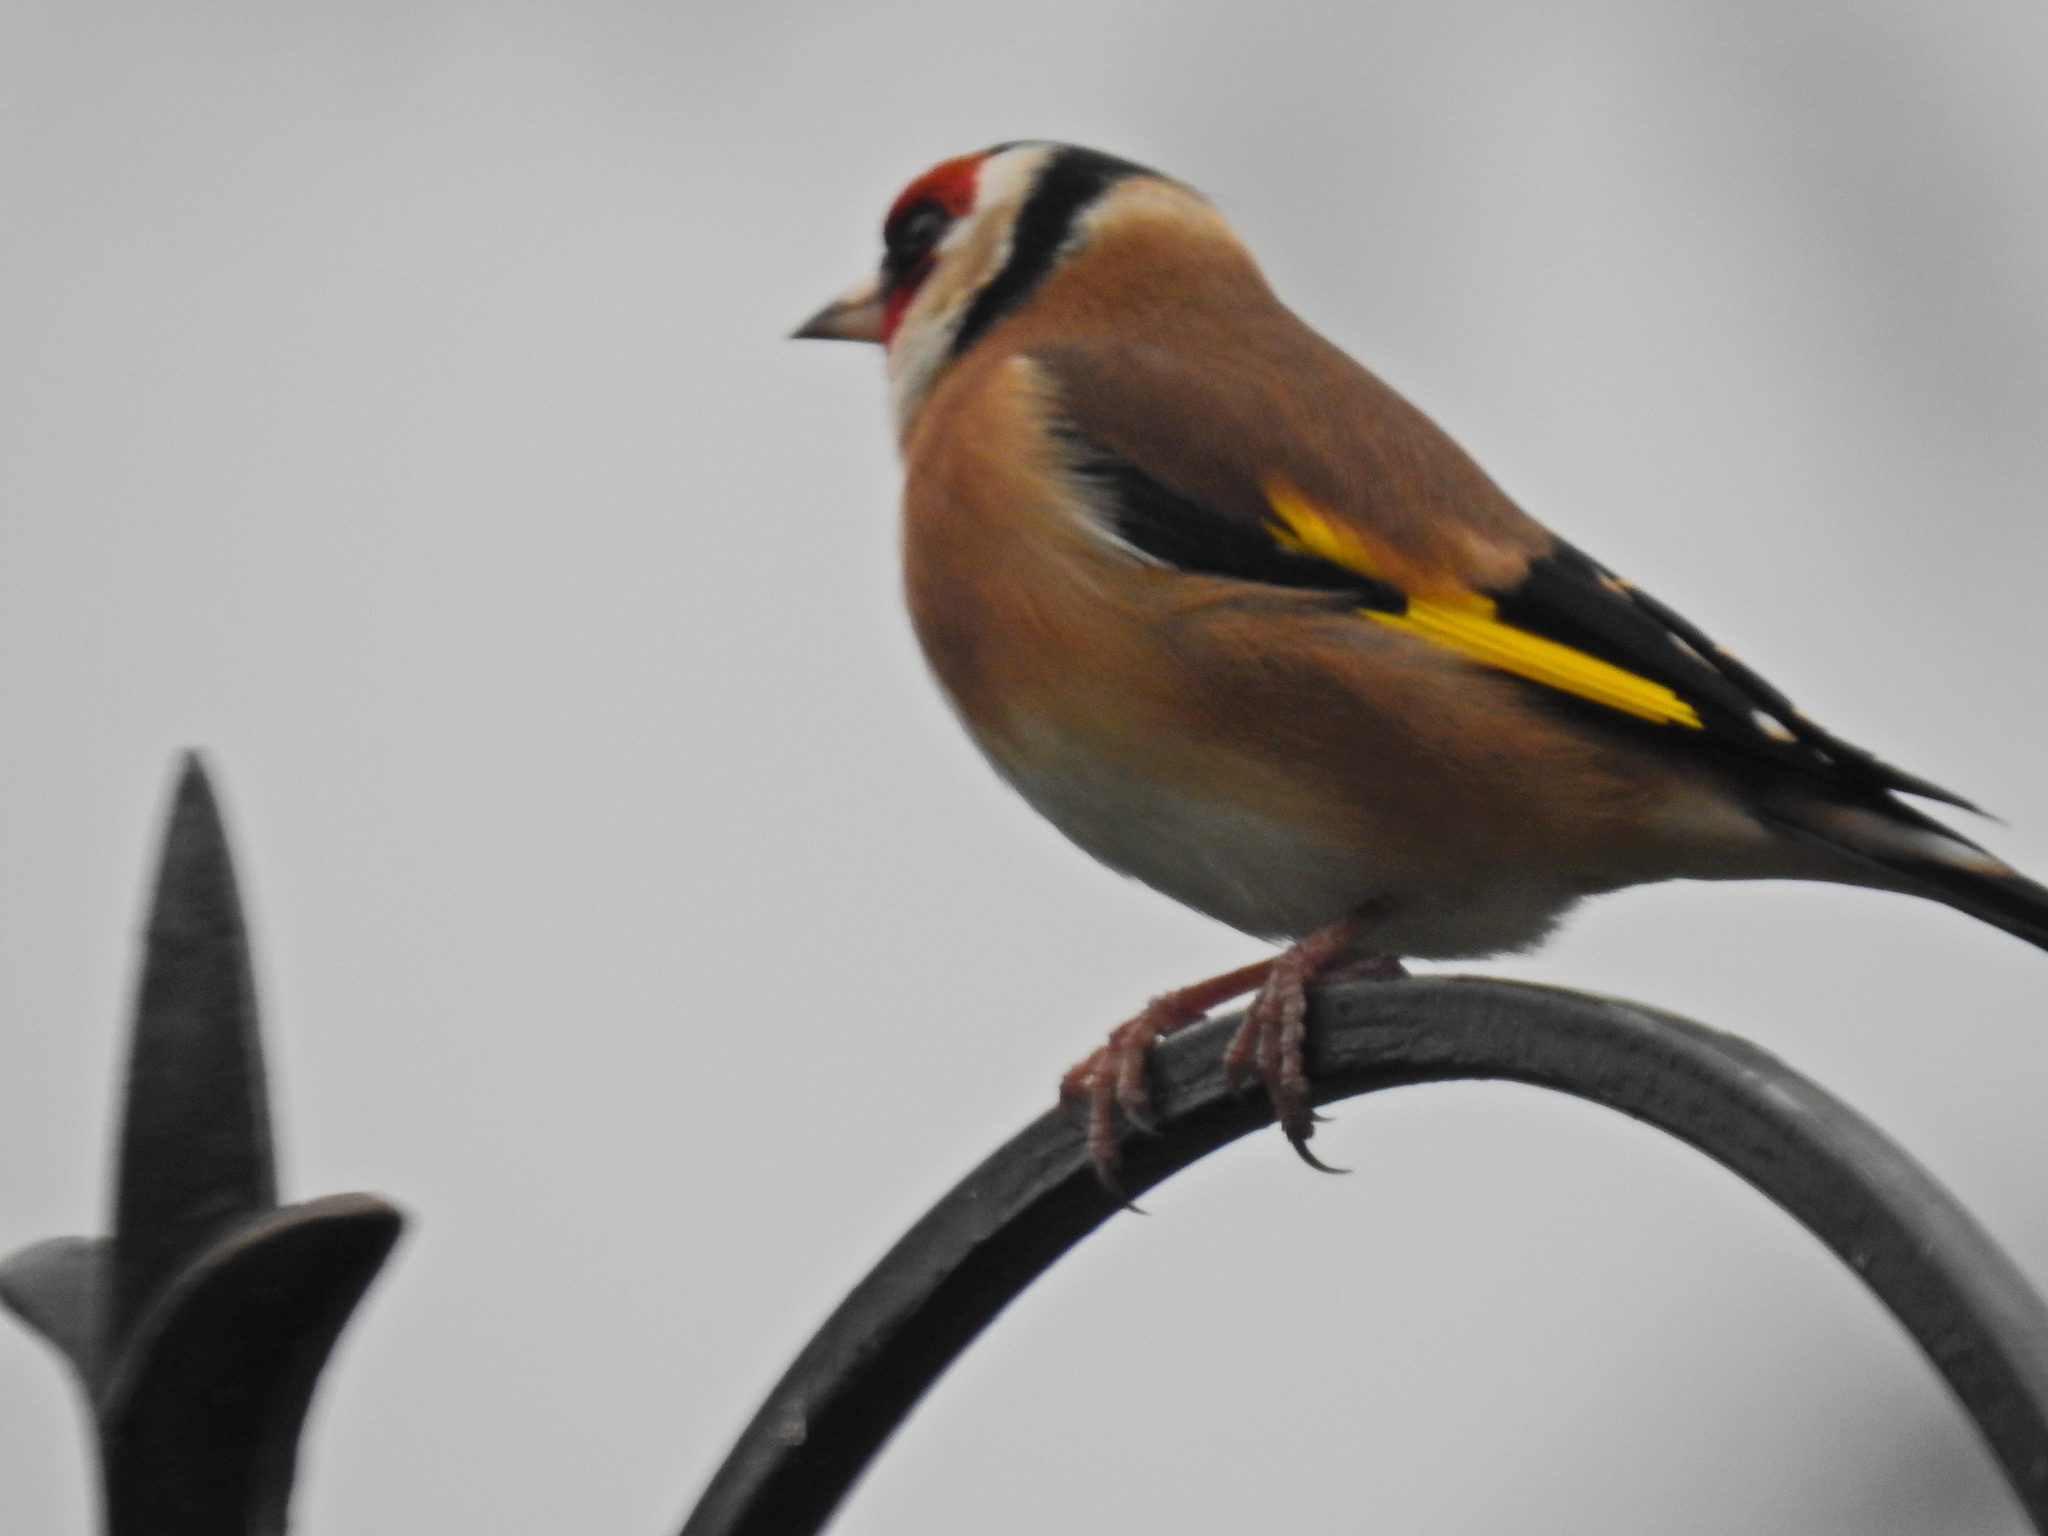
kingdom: Animalia
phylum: Chordata
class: Aves
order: Passeriformes
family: Fringillidae
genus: Carduelis
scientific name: Carduelis carduelis
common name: European goldfinch
